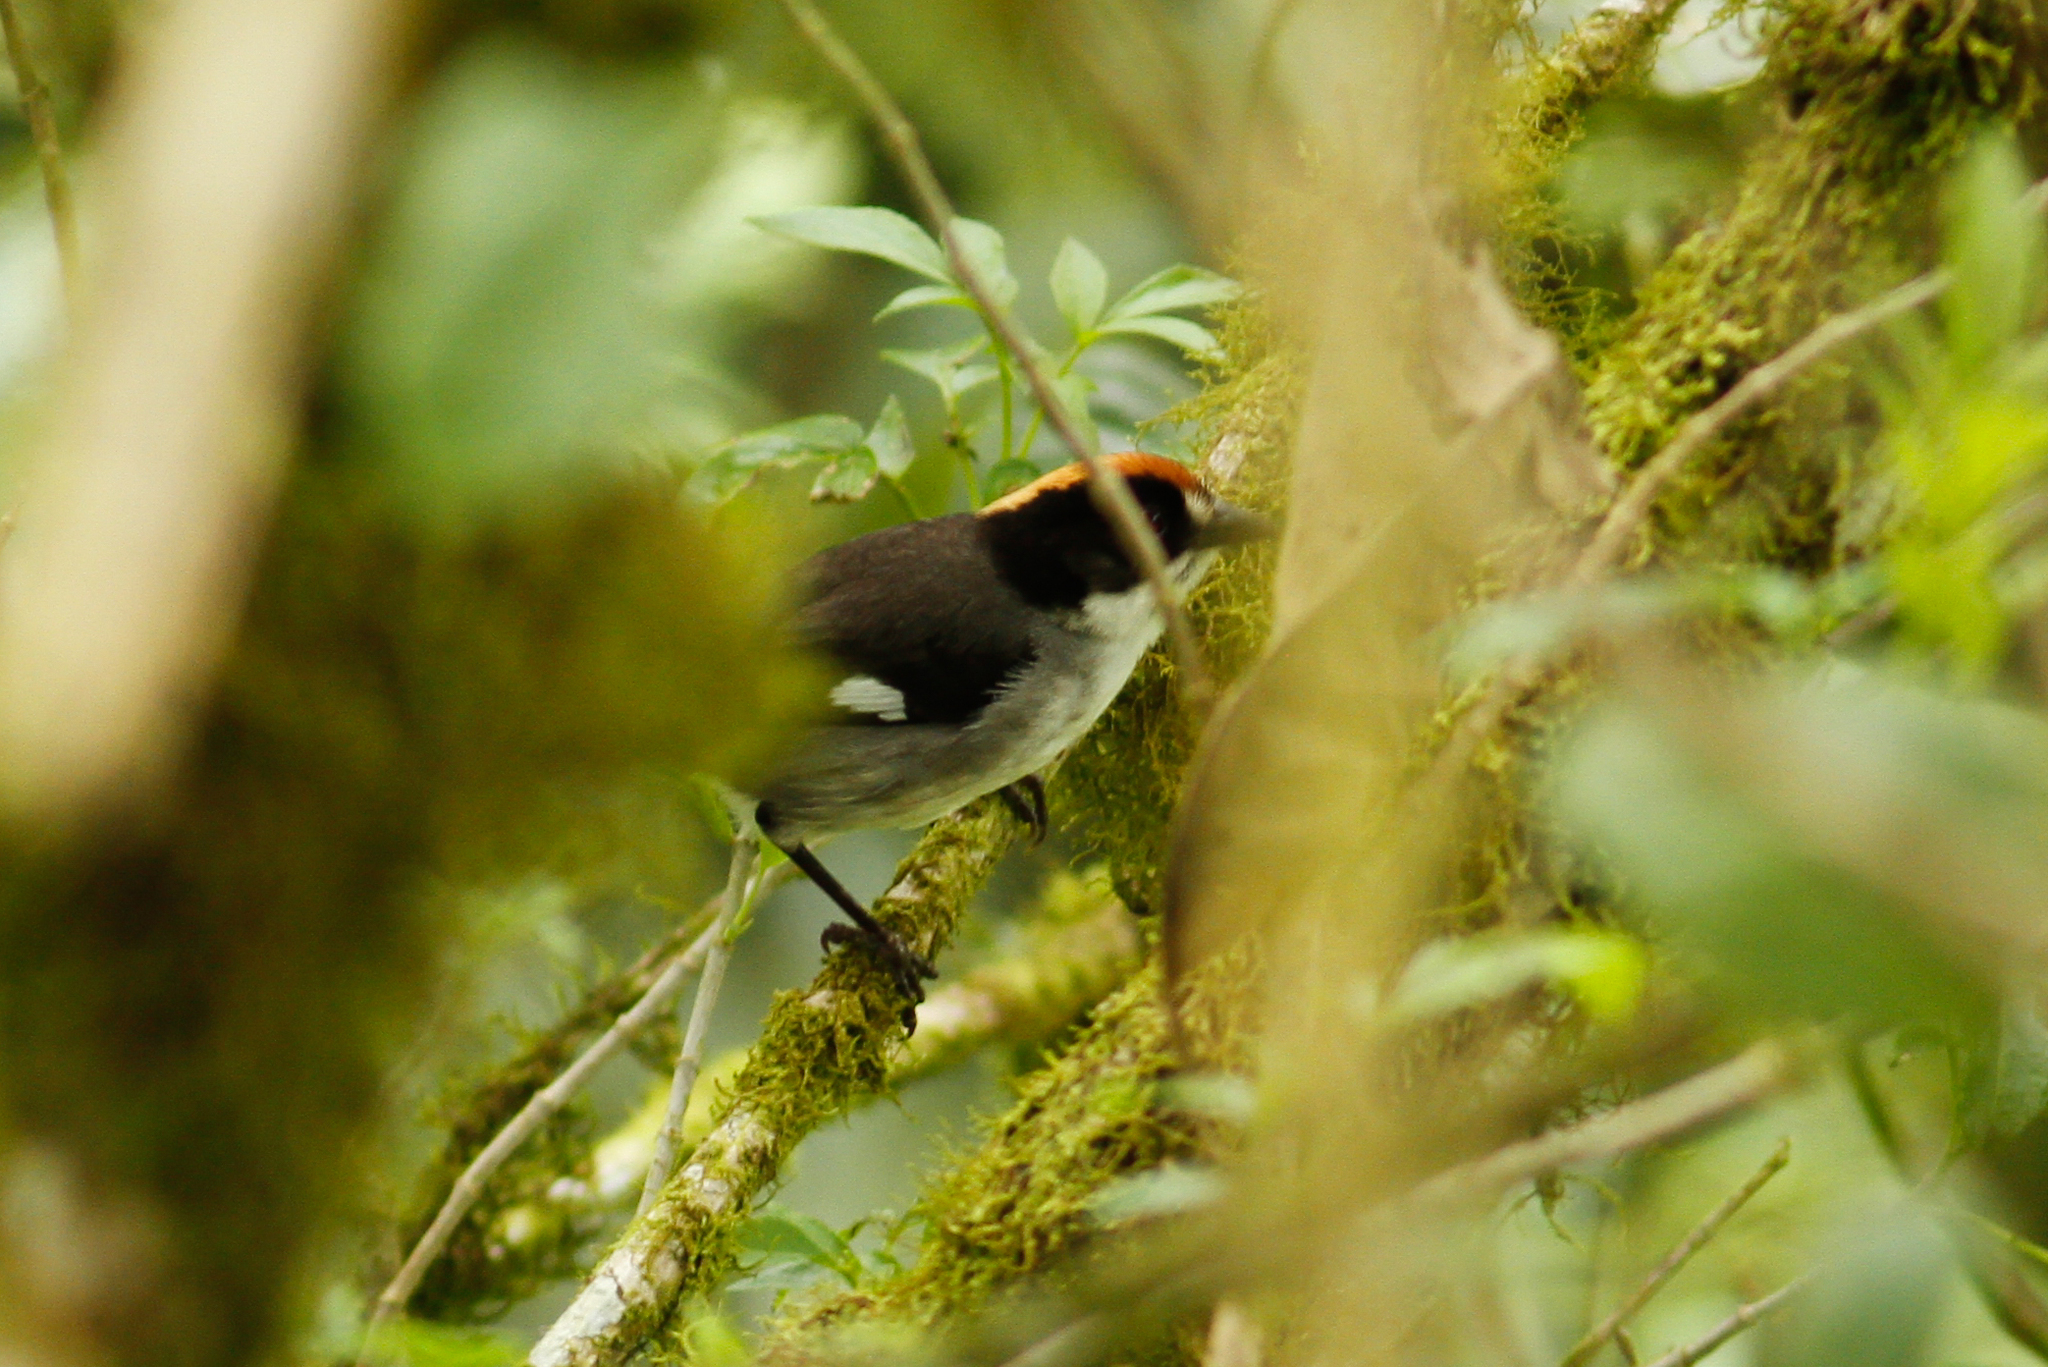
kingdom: Animalia
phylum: Chordata
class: Aves
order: Passeriformes
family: Passerellidae
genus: Atlapetes
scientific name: Atlapetes leucopterus
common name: White-winged brushfinch
